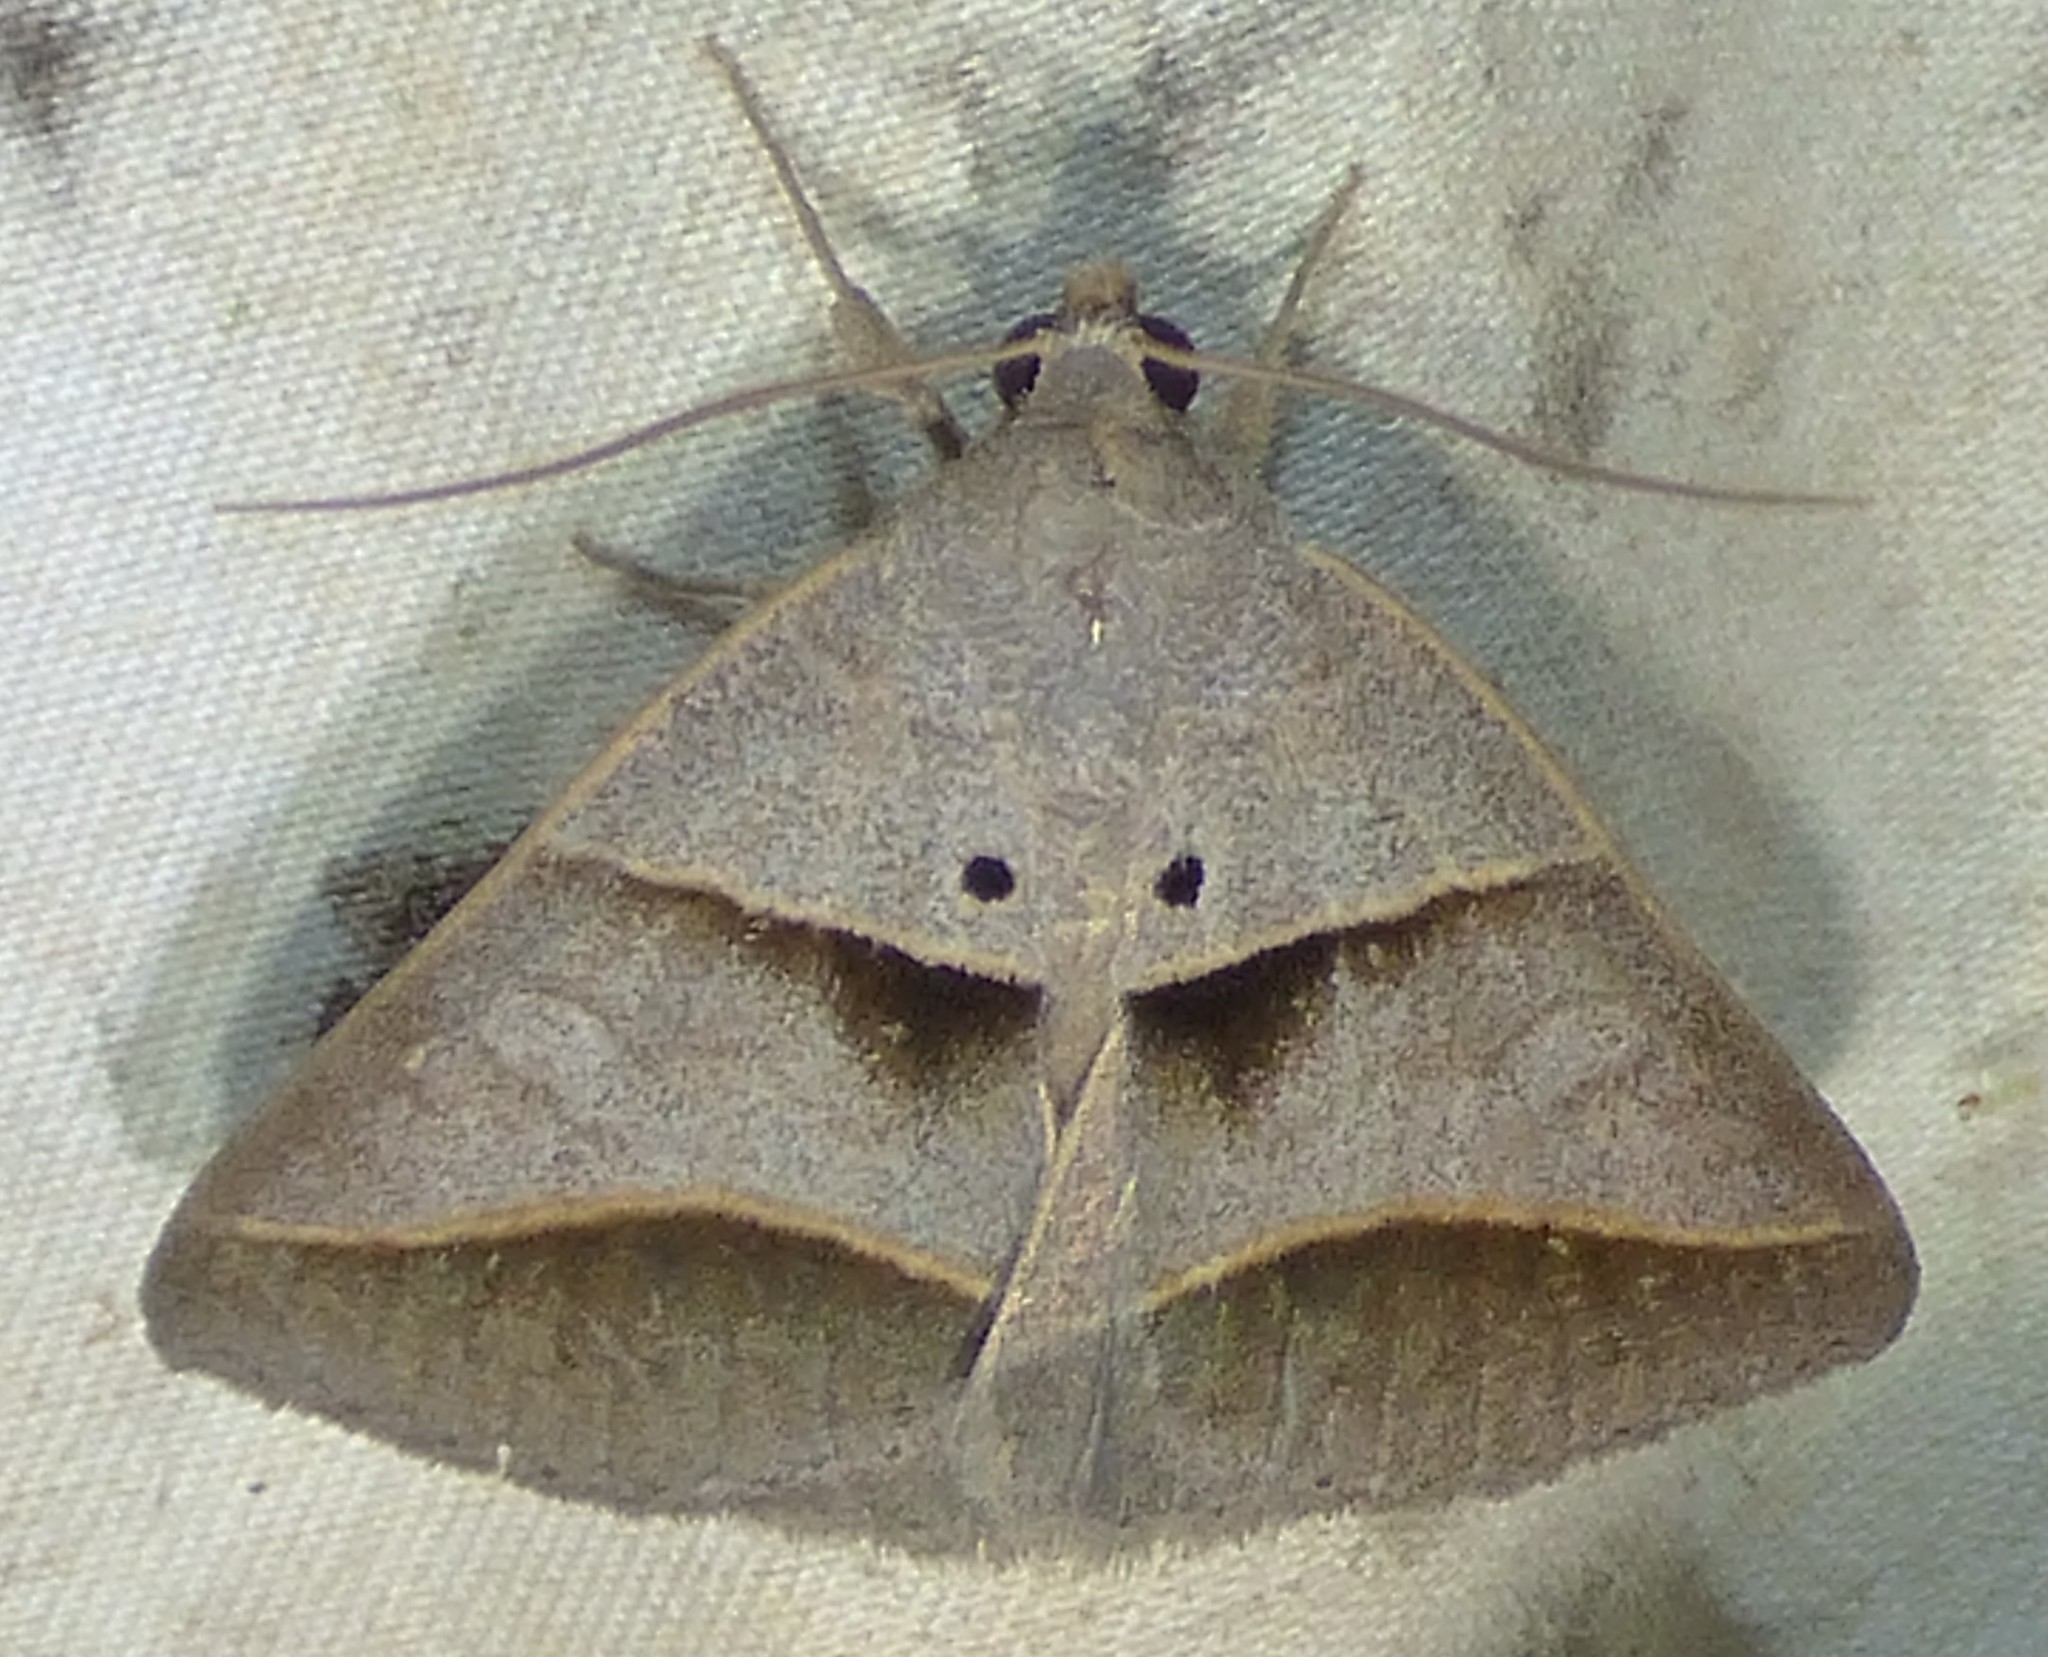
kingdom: Animalia
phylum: Arthropoda
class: Insecta
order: Lepidoptera
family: Erebidae
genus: Ptichodis
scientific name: Ptichodis herbarum
